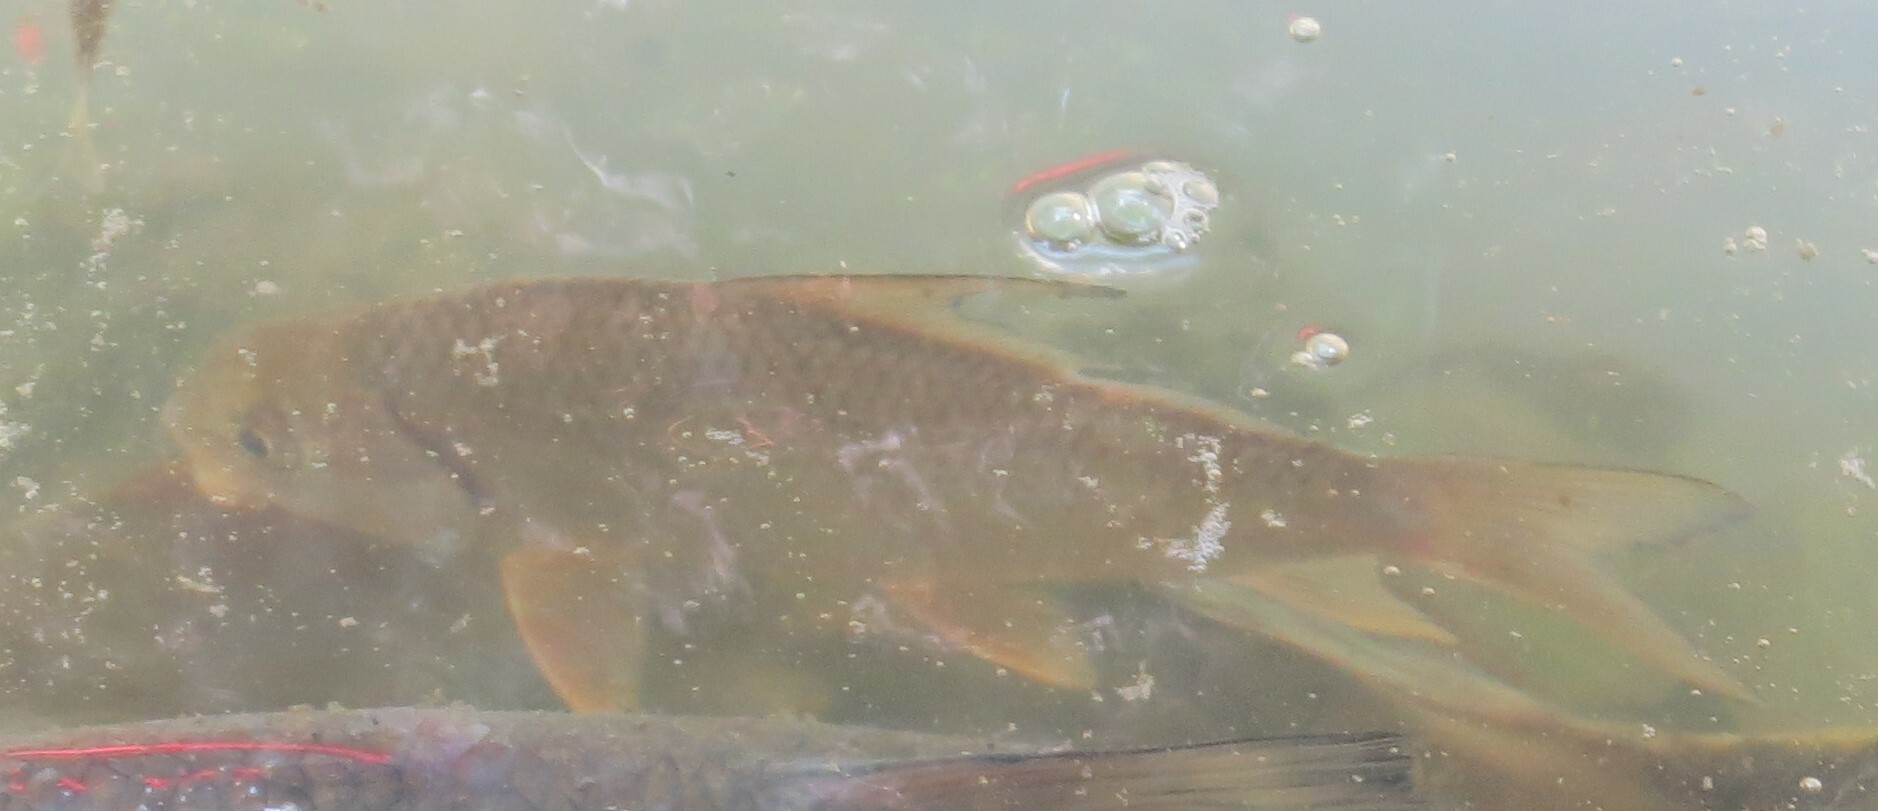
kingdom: Animalia
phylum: Chordata
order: Cypriniformes
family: Catostomidae
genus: Carpiodes
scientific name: Carpiodes
